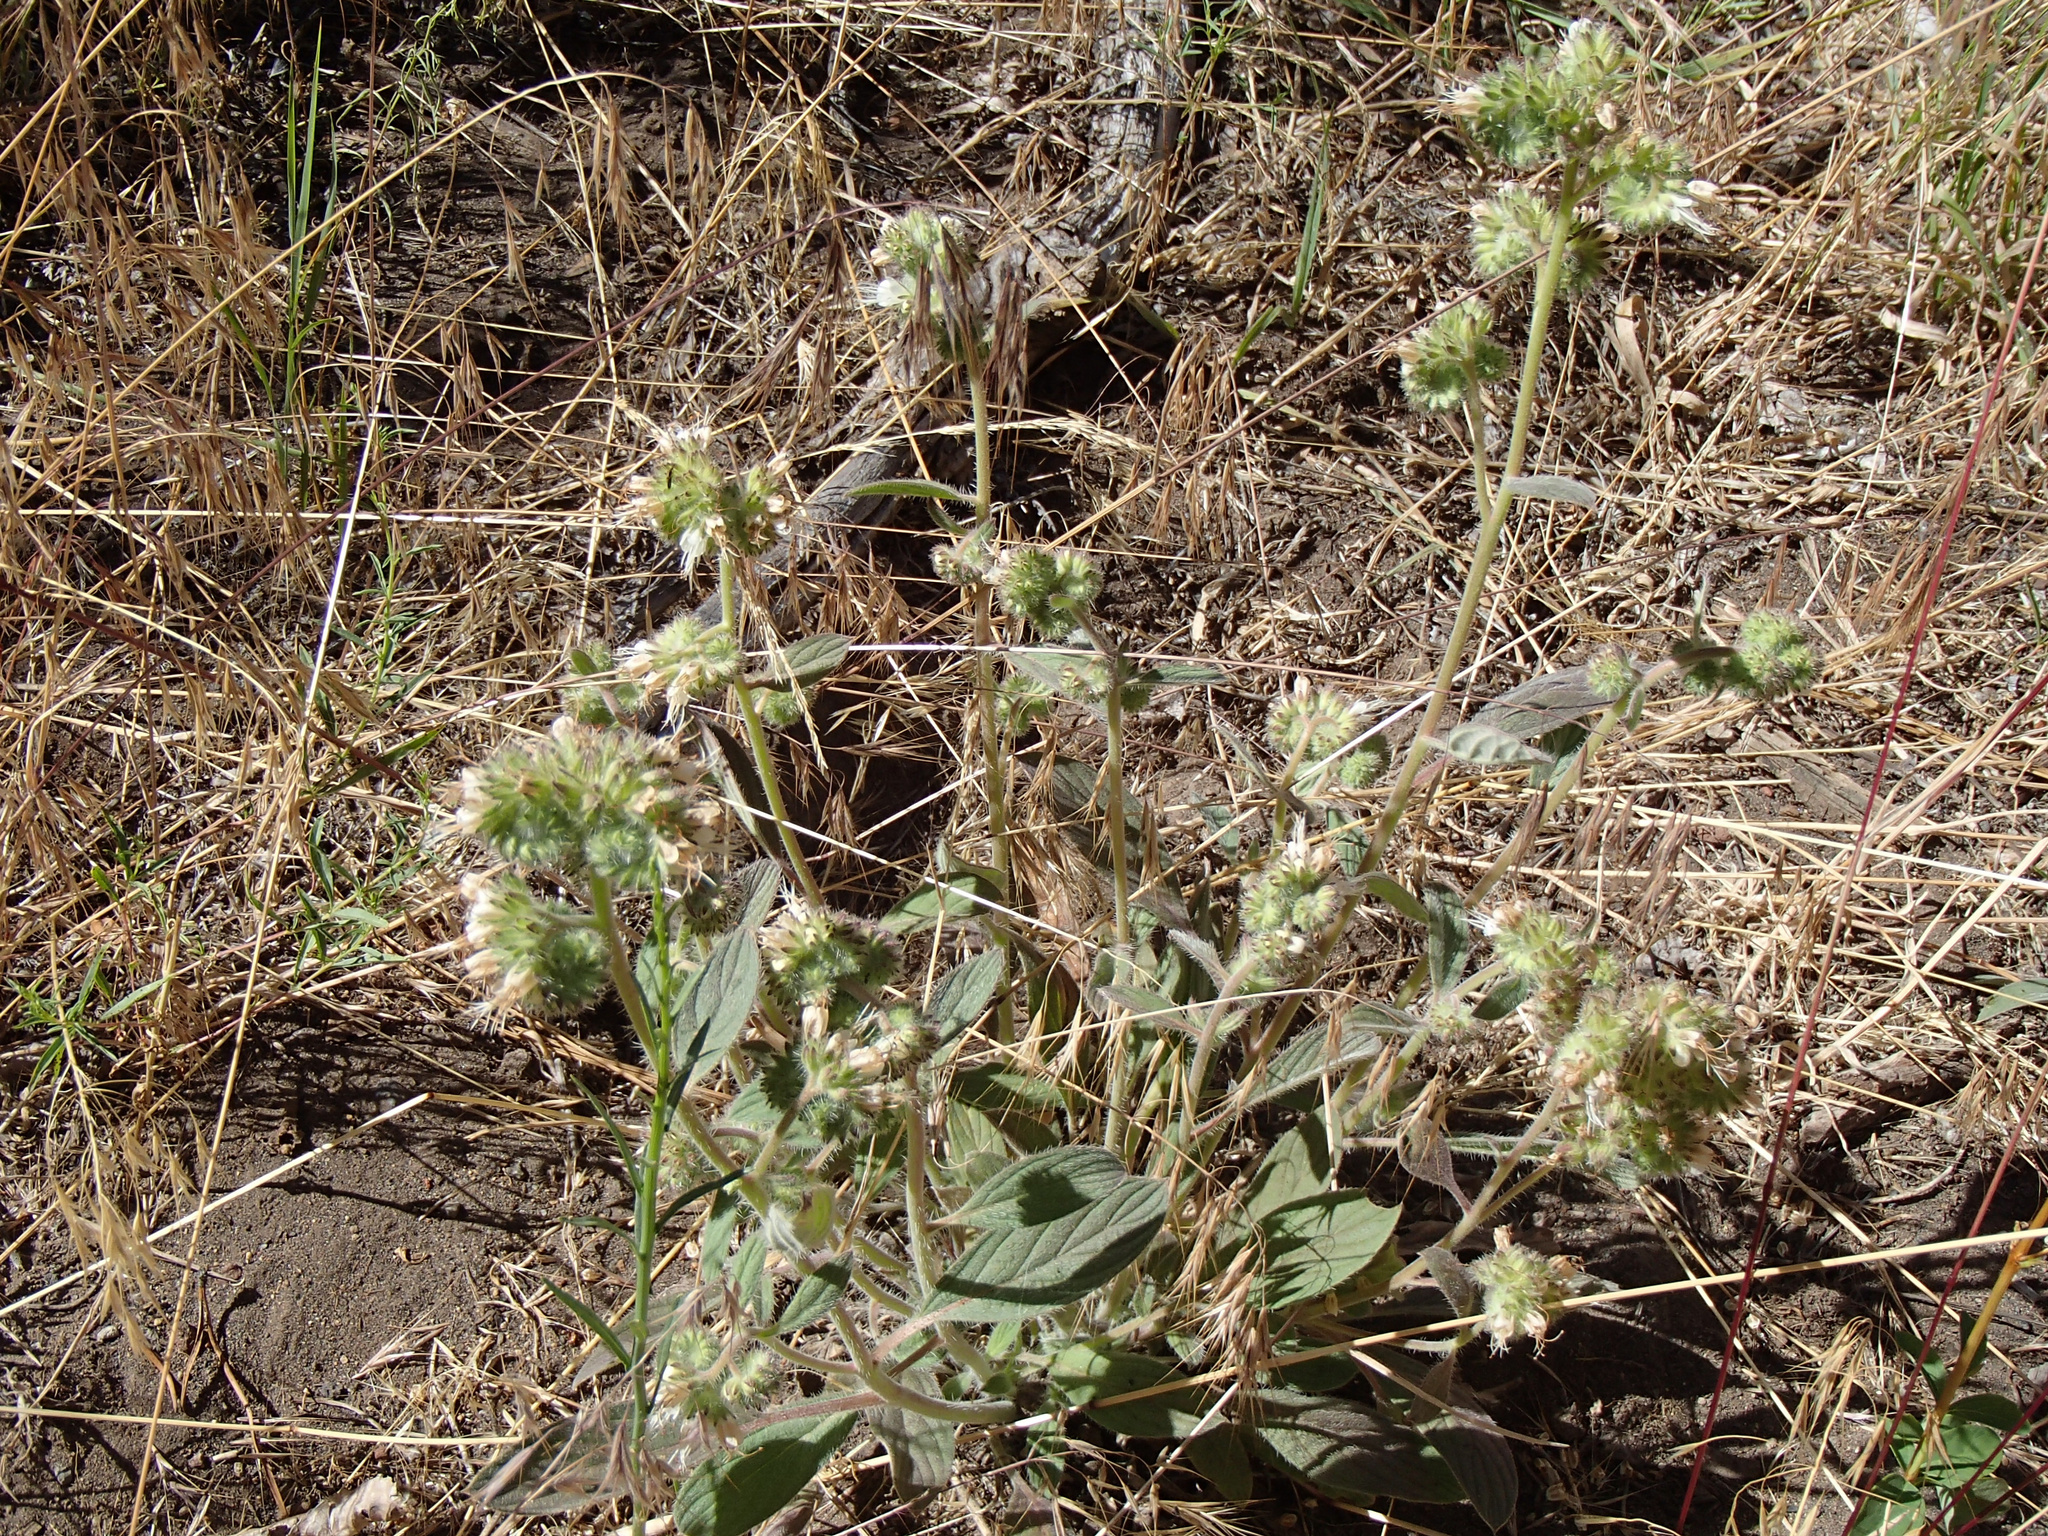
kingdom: Plantae
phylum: Tracheophyta
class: Magnoliopsida
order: Boraginales
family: Hydrophyllaceae
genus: Phacelia
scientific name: Phacelia hastata
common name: Silver-leaved phacelia
